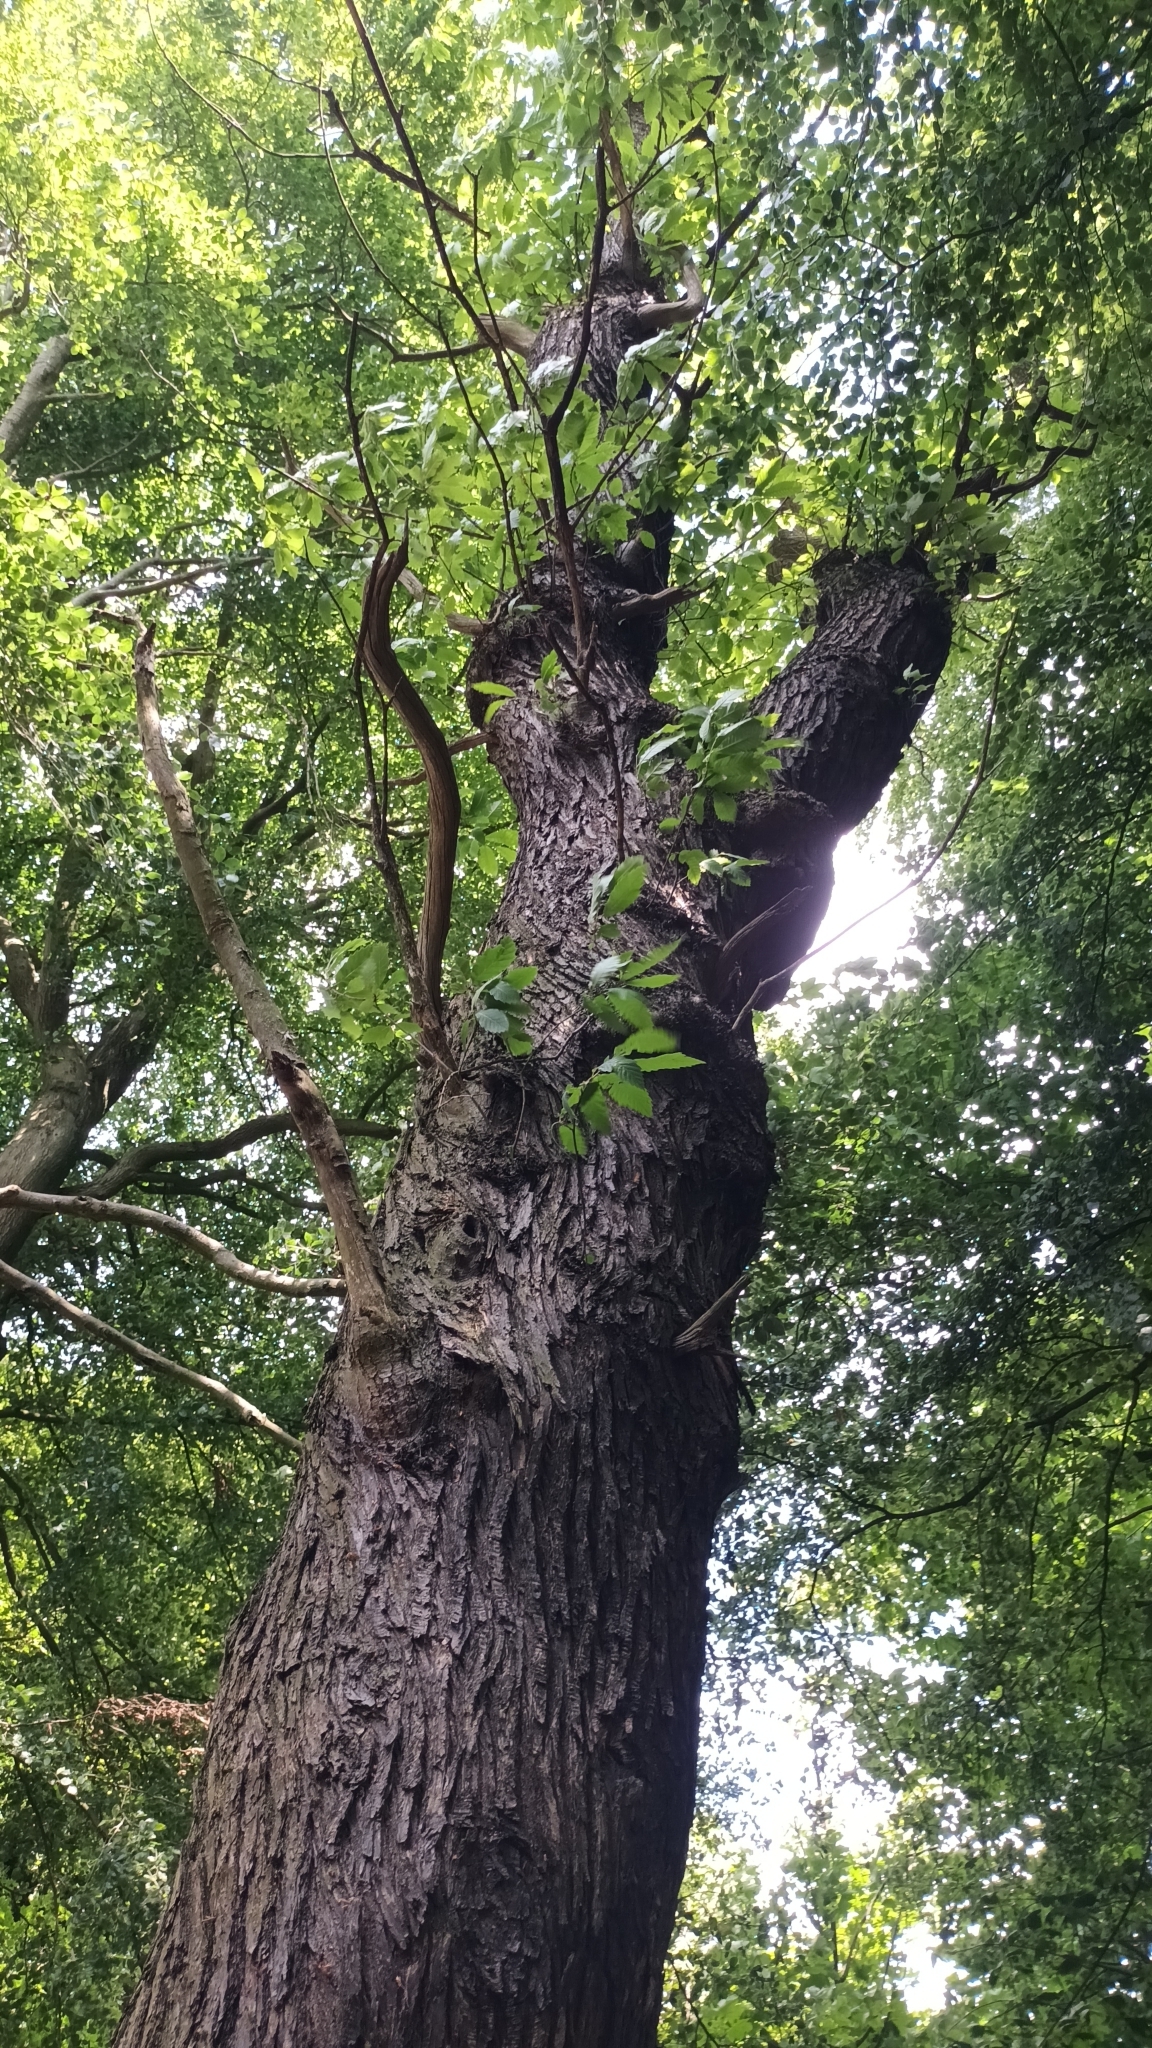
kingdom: Plantae
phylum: Tracheophyta
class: Magnoliopsida
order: Fagales
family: Fagaceae
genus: Castanea
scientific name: Castanea sativa
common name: Sweet chestnut
